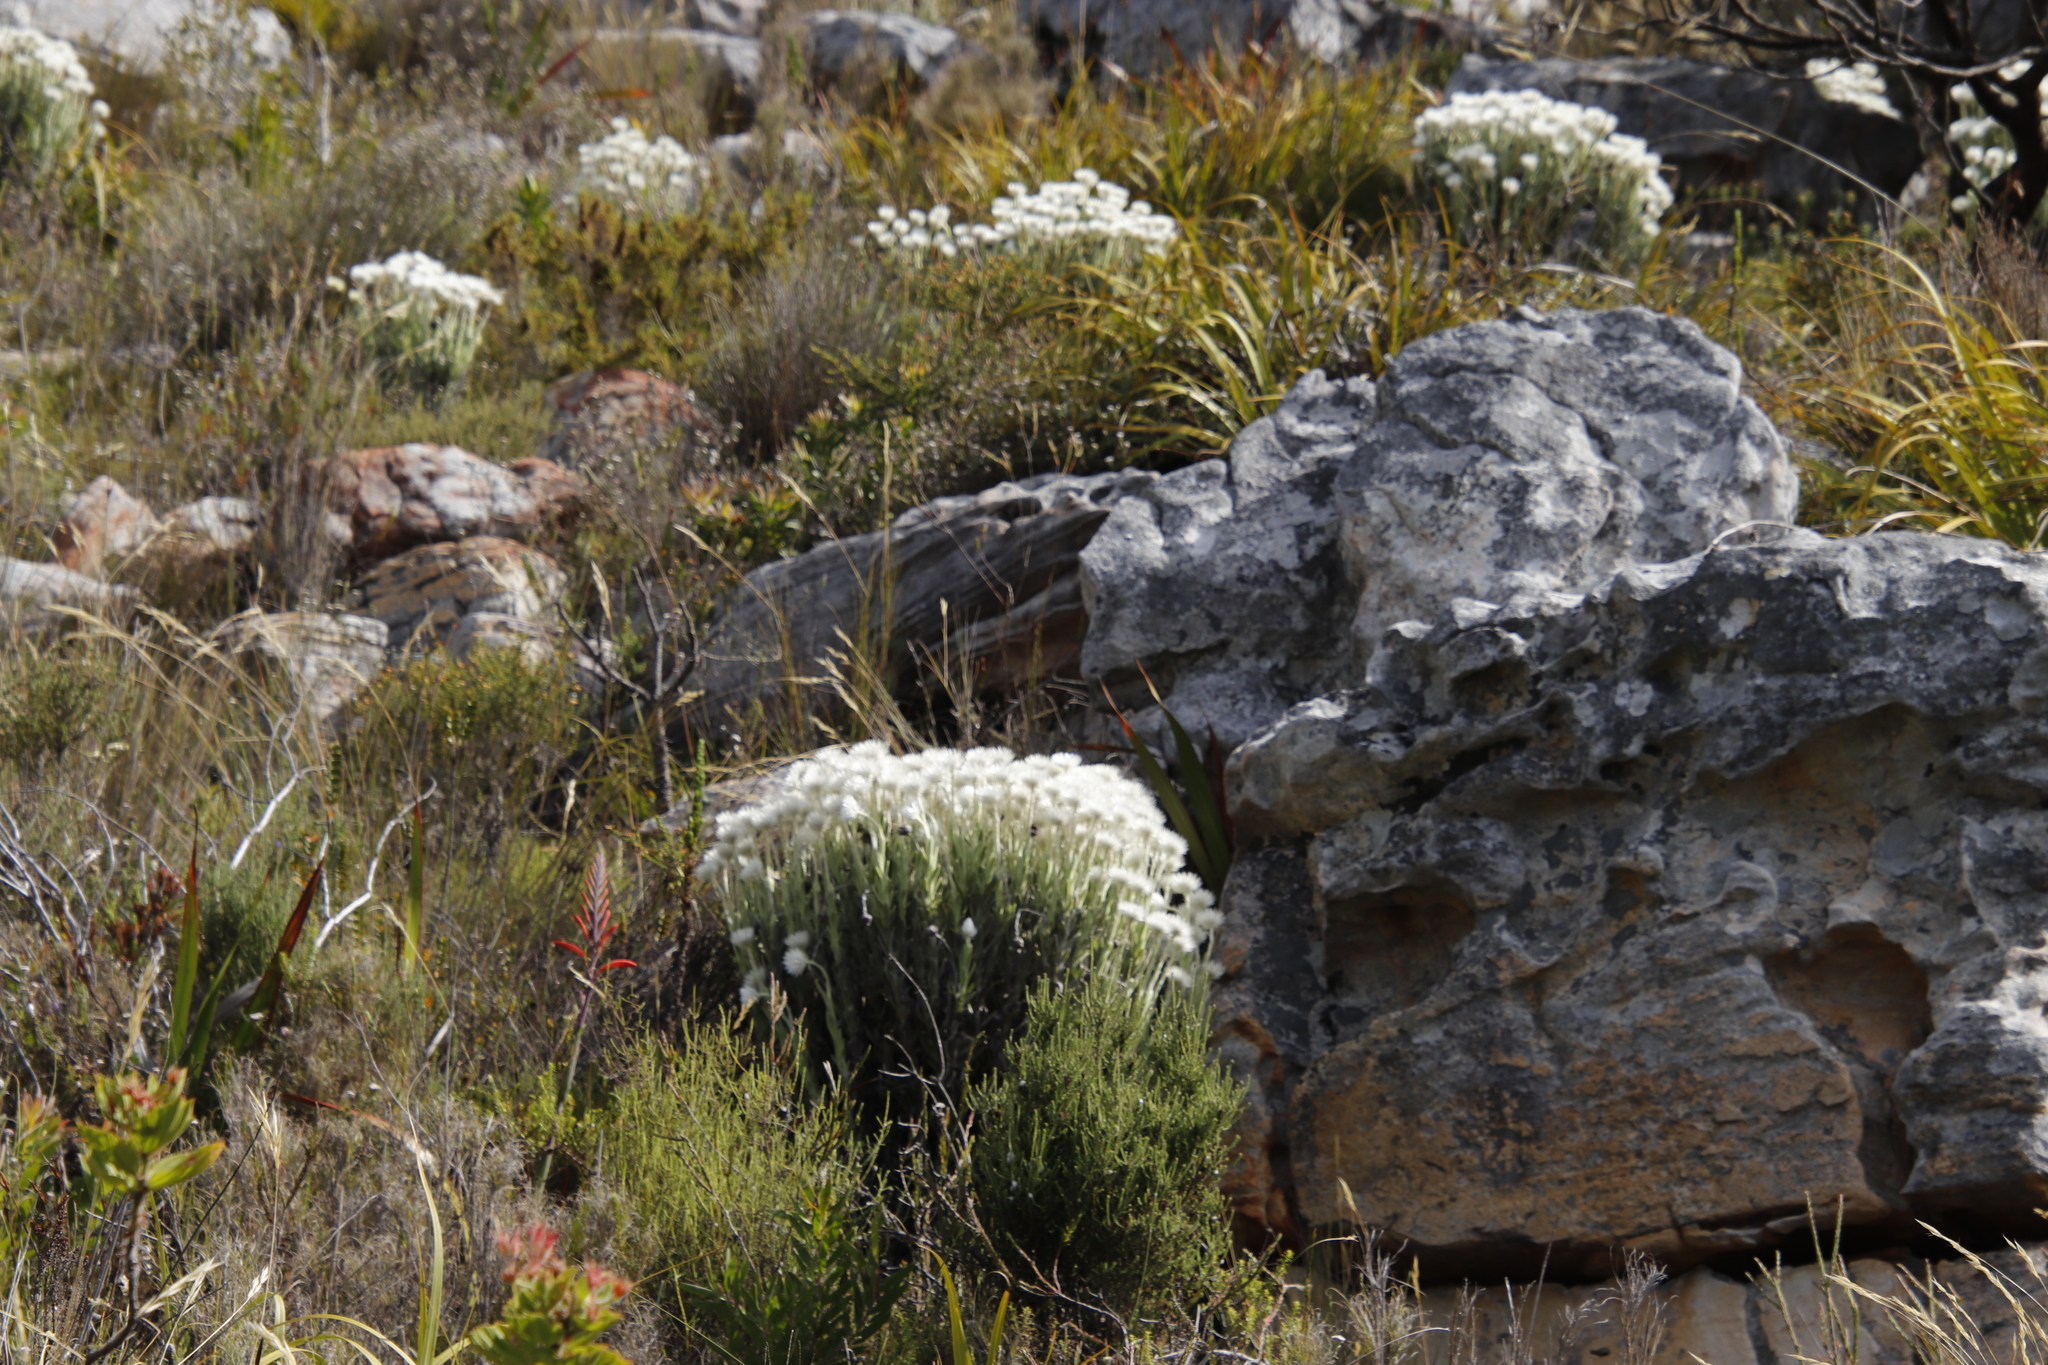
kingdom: Plantae
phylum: Tracheophyta
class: Magnoliopsida
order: Asterales
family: Asteraceae
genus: Syncarpha
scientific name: Syncarpha vestita
